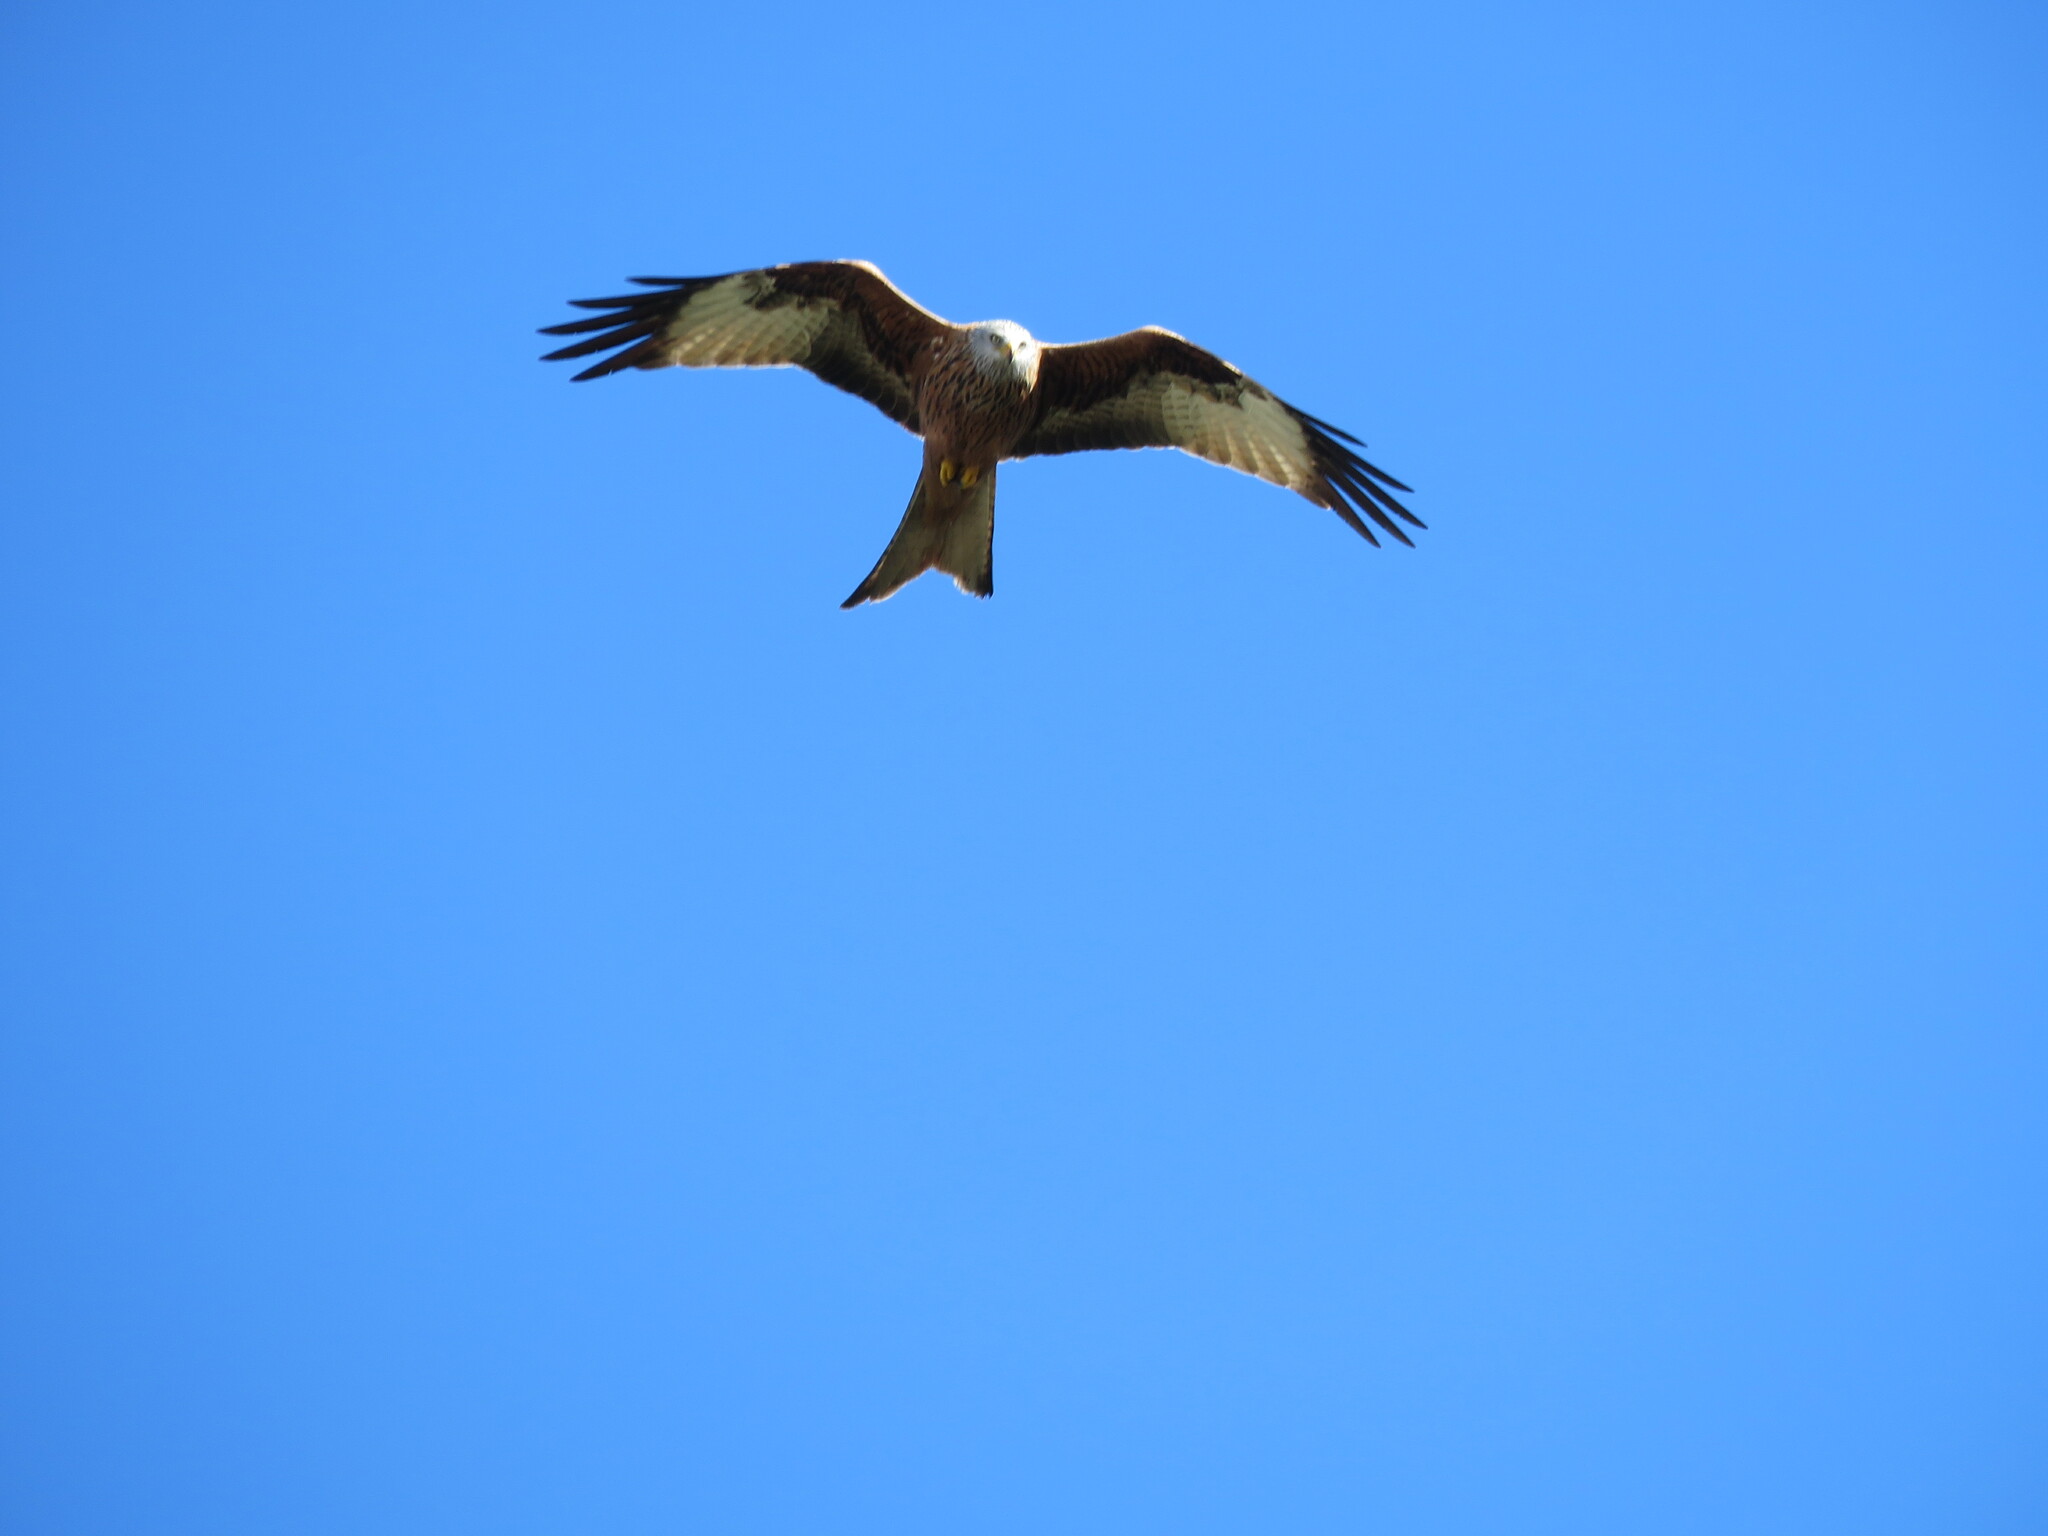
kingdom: Animalia
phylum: Chordata
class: Aves
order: Accipitriformes
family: Accipitridae
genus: Milvus
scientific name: Milvus milvus
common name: Red kite
